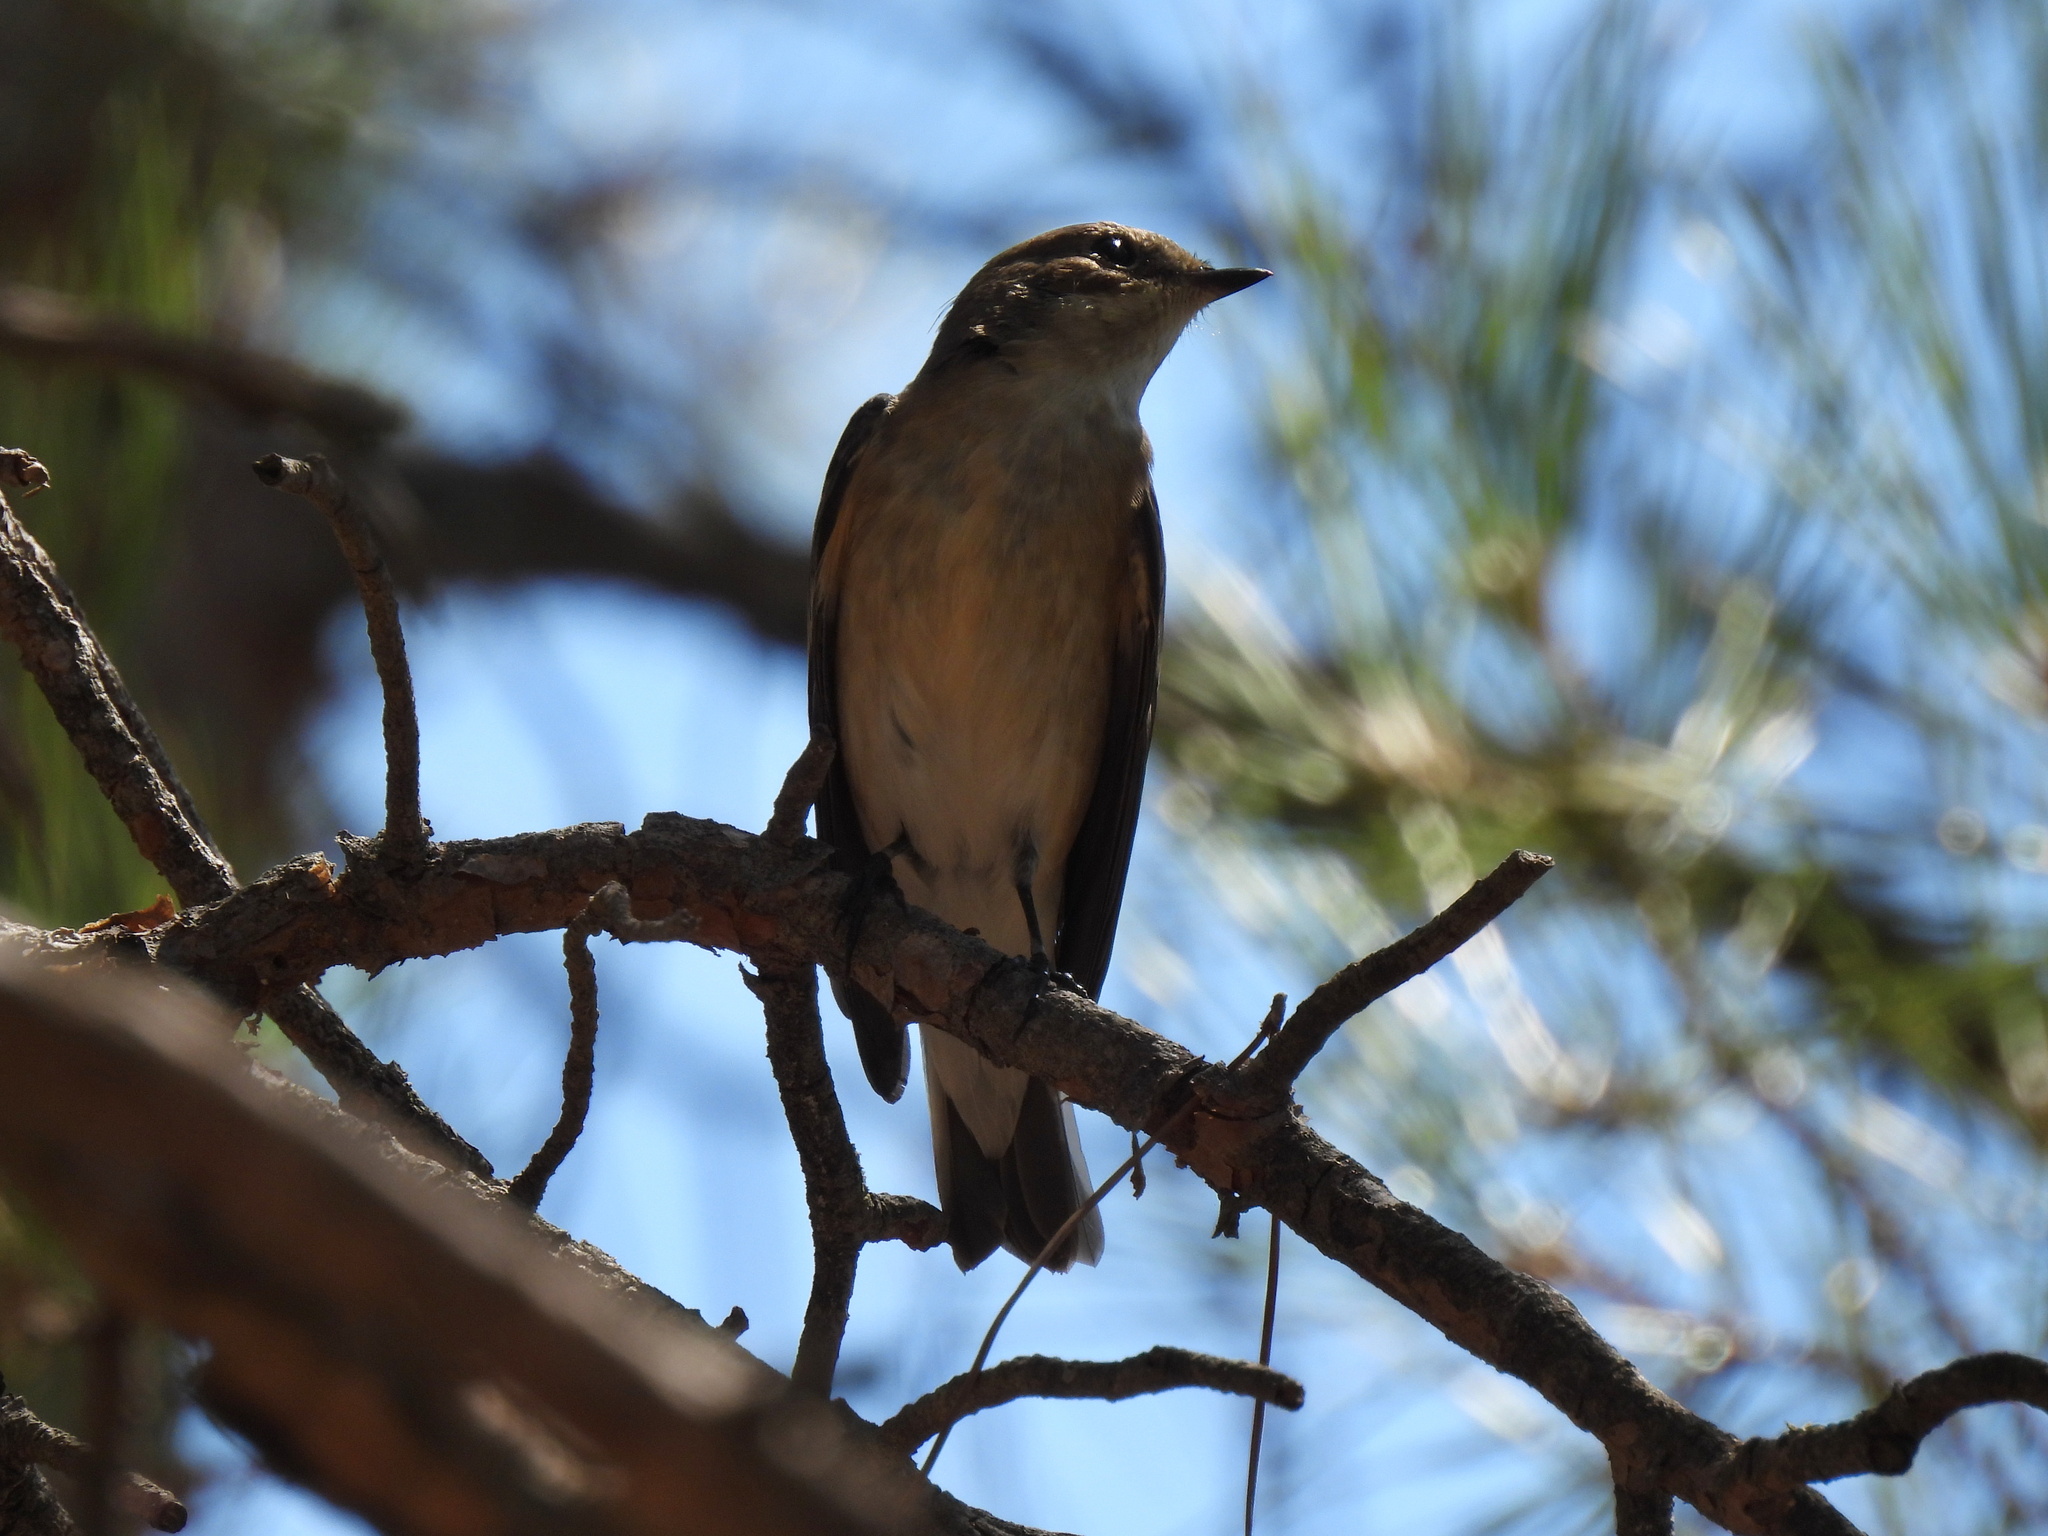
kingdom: Animalia
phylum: Chordata
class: Aves
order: Passeriformes
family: Muscicapidae
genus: Ficedula
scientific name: Ficedula hypoleuca
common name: European pied flycatcher
